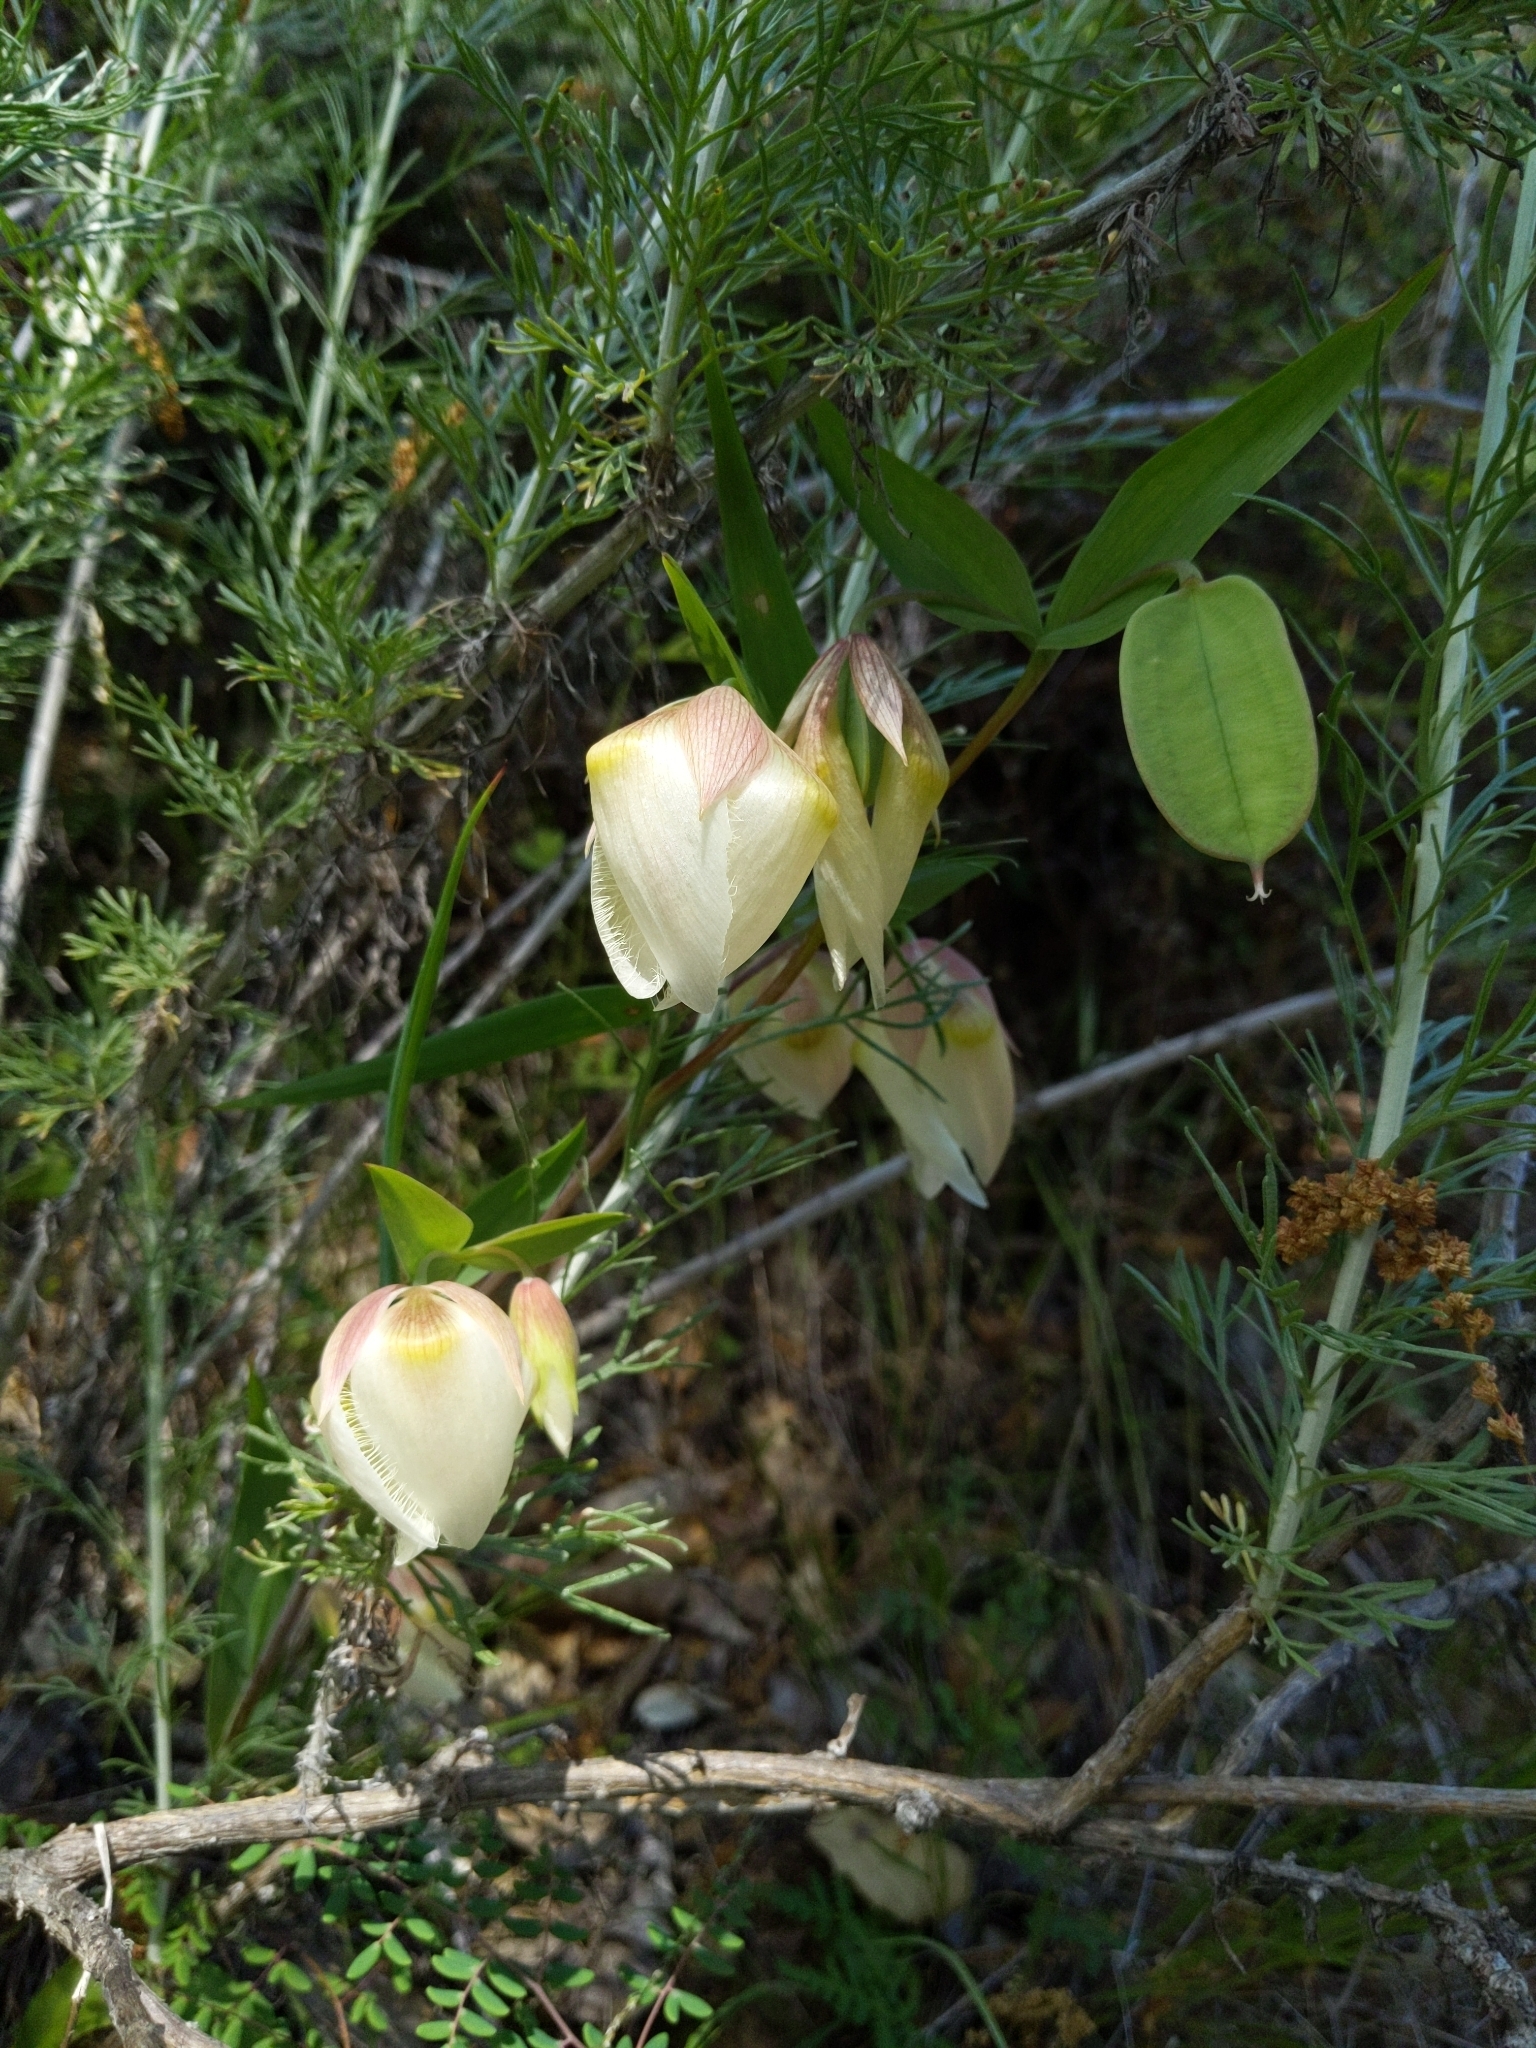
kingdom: Plantae
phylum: Tracheophyta
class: Liliopsida
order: Liliales
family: Liliaceae
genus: Calochortus
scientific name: Calochortus albus
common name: Fairy-lantern
